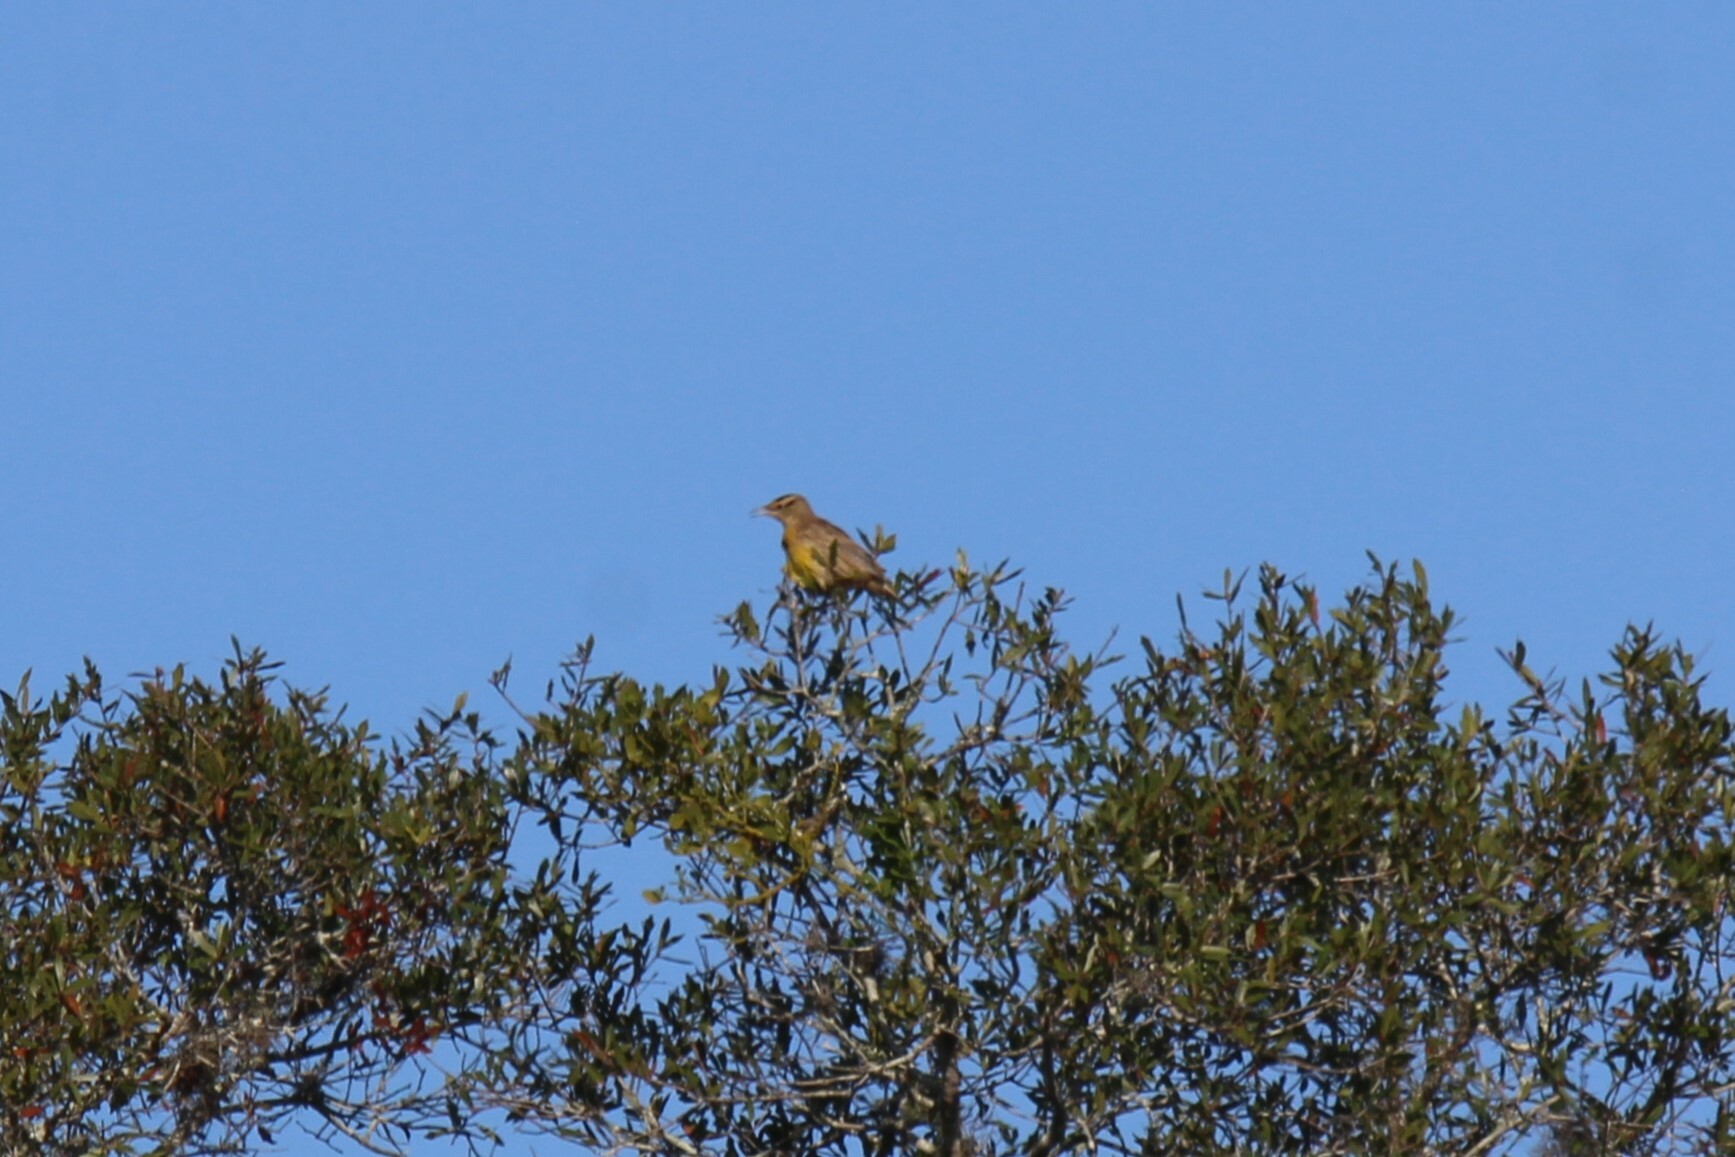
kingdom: Animalia
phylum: Chordata
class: Aves
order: Passeriformes
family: Icteridae
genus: Sturnella
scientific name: Sturnella magna
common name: Eastern meadowlark
